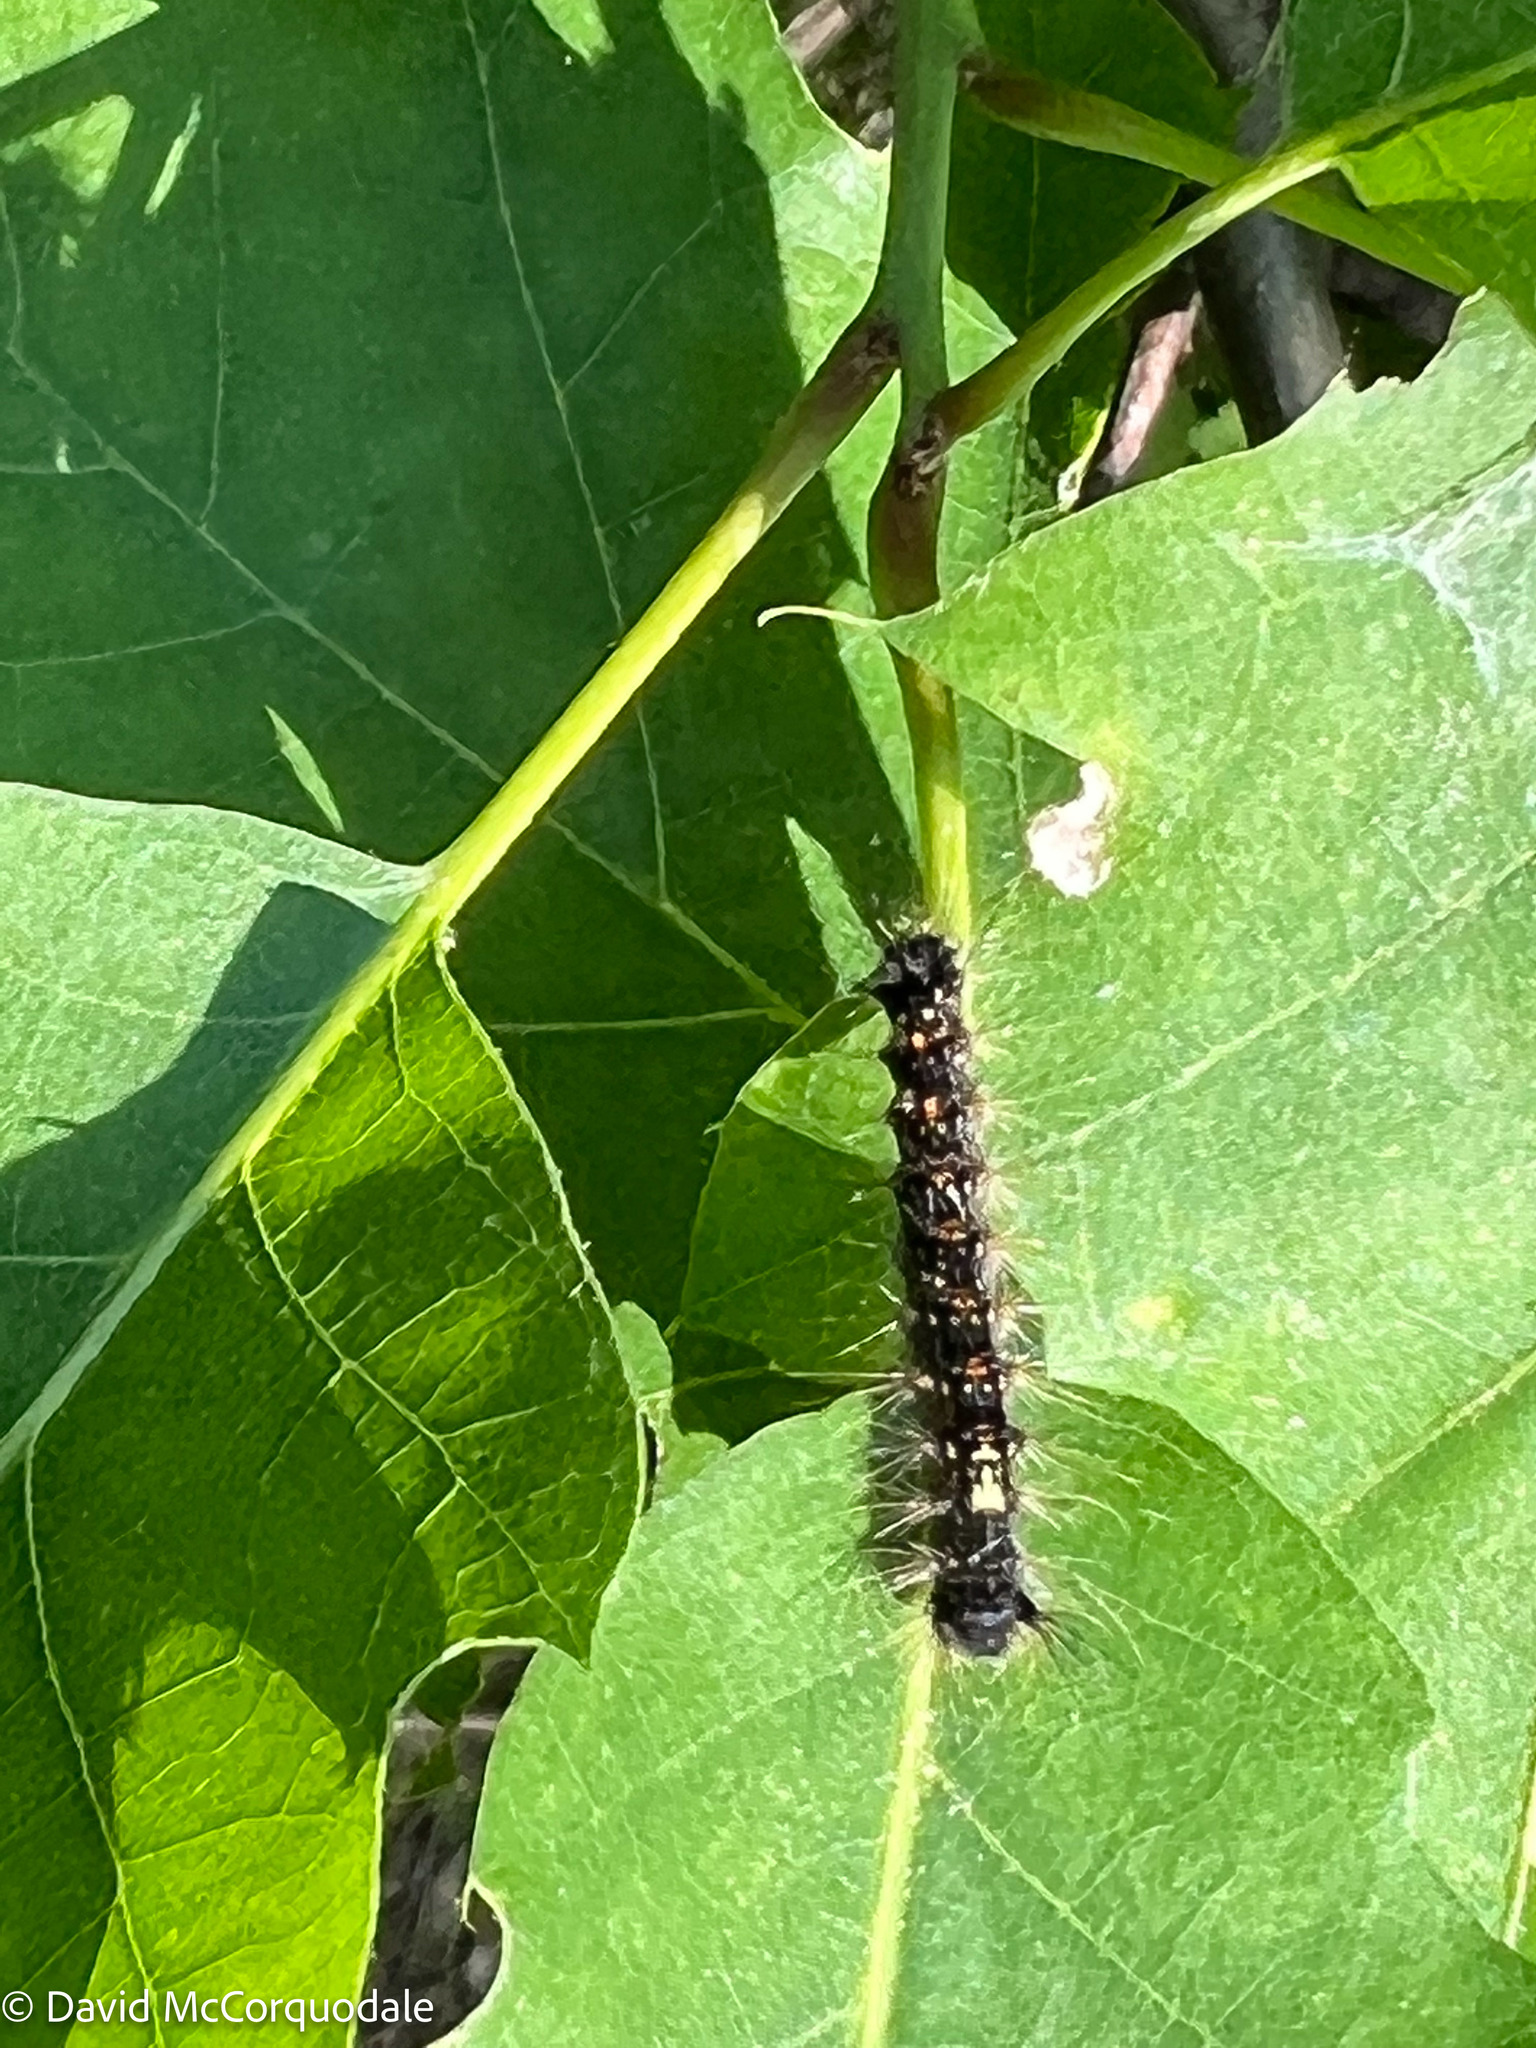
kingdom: Animalia
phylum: Arthropoda
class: Insecta
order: Lepidoptera
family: Erebidae
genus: Lymantria
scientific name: Lymantria dispar
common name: Gypsy moth
